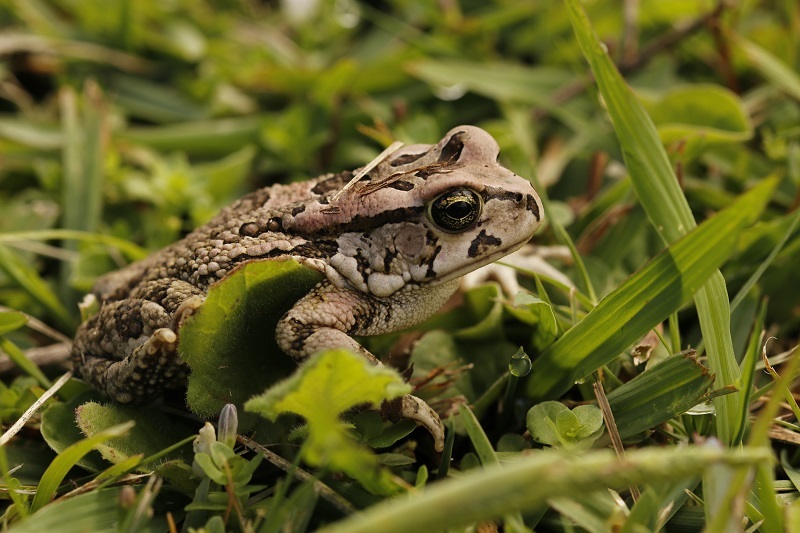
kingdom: Animalia
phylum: Chordata
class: Amphibia
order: Anura
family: Bufonidae
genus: Sclerophrys
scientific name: Sclerophrys capensis
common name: Ranger’s toad
